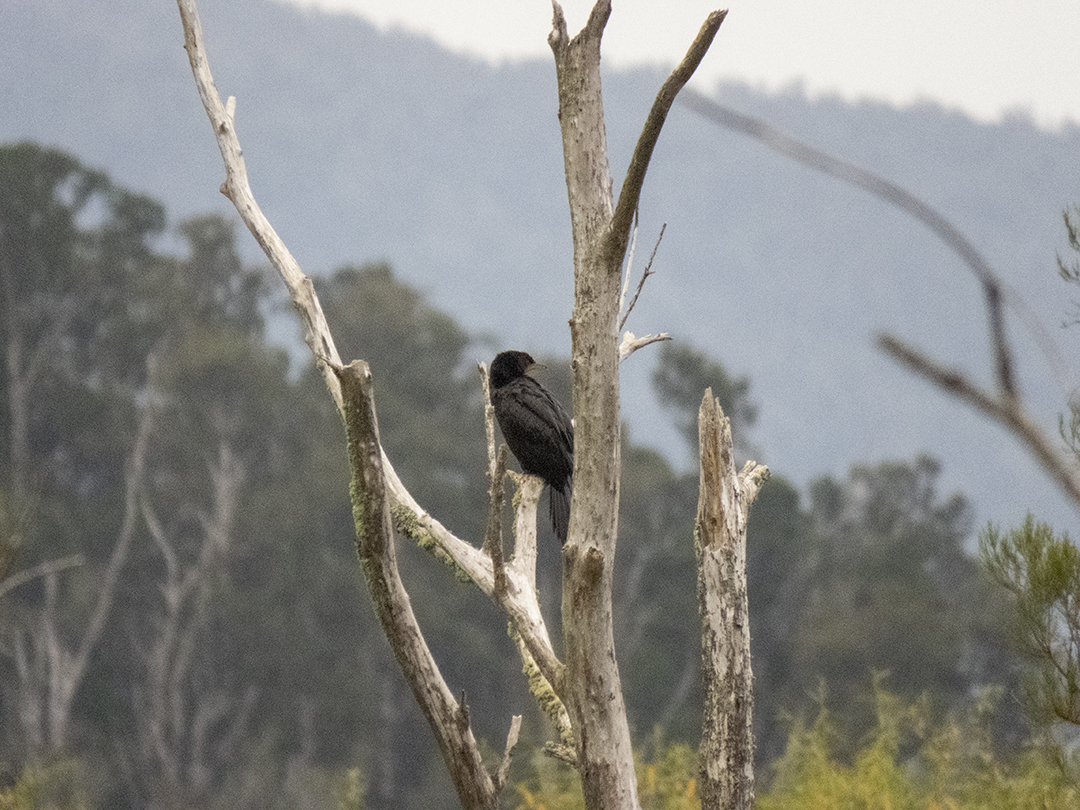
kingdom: Animalia
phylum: Chordata
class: Aves
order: Suliformes
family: Phalacrocoracidae
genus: Phalacrocorax
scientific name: Phalacrocorax carbo
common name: Great cormorant
